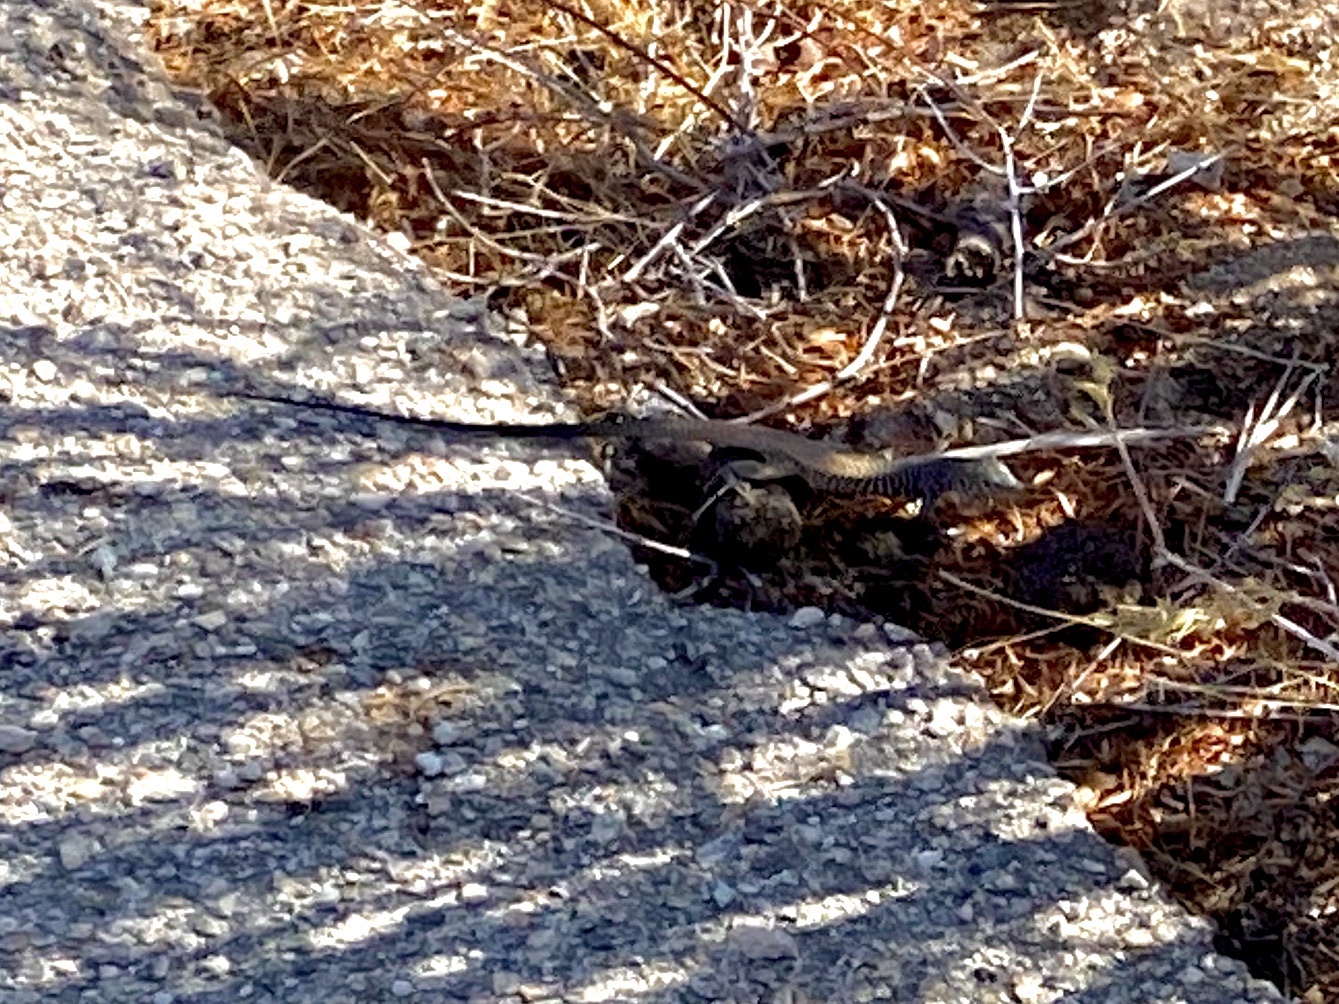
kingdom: Animalia
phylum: Chordata
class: Squamata
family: Teiidae
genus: Aspidoscelis
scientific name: Aspidoscelis tigris
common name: Tiger whiptail
